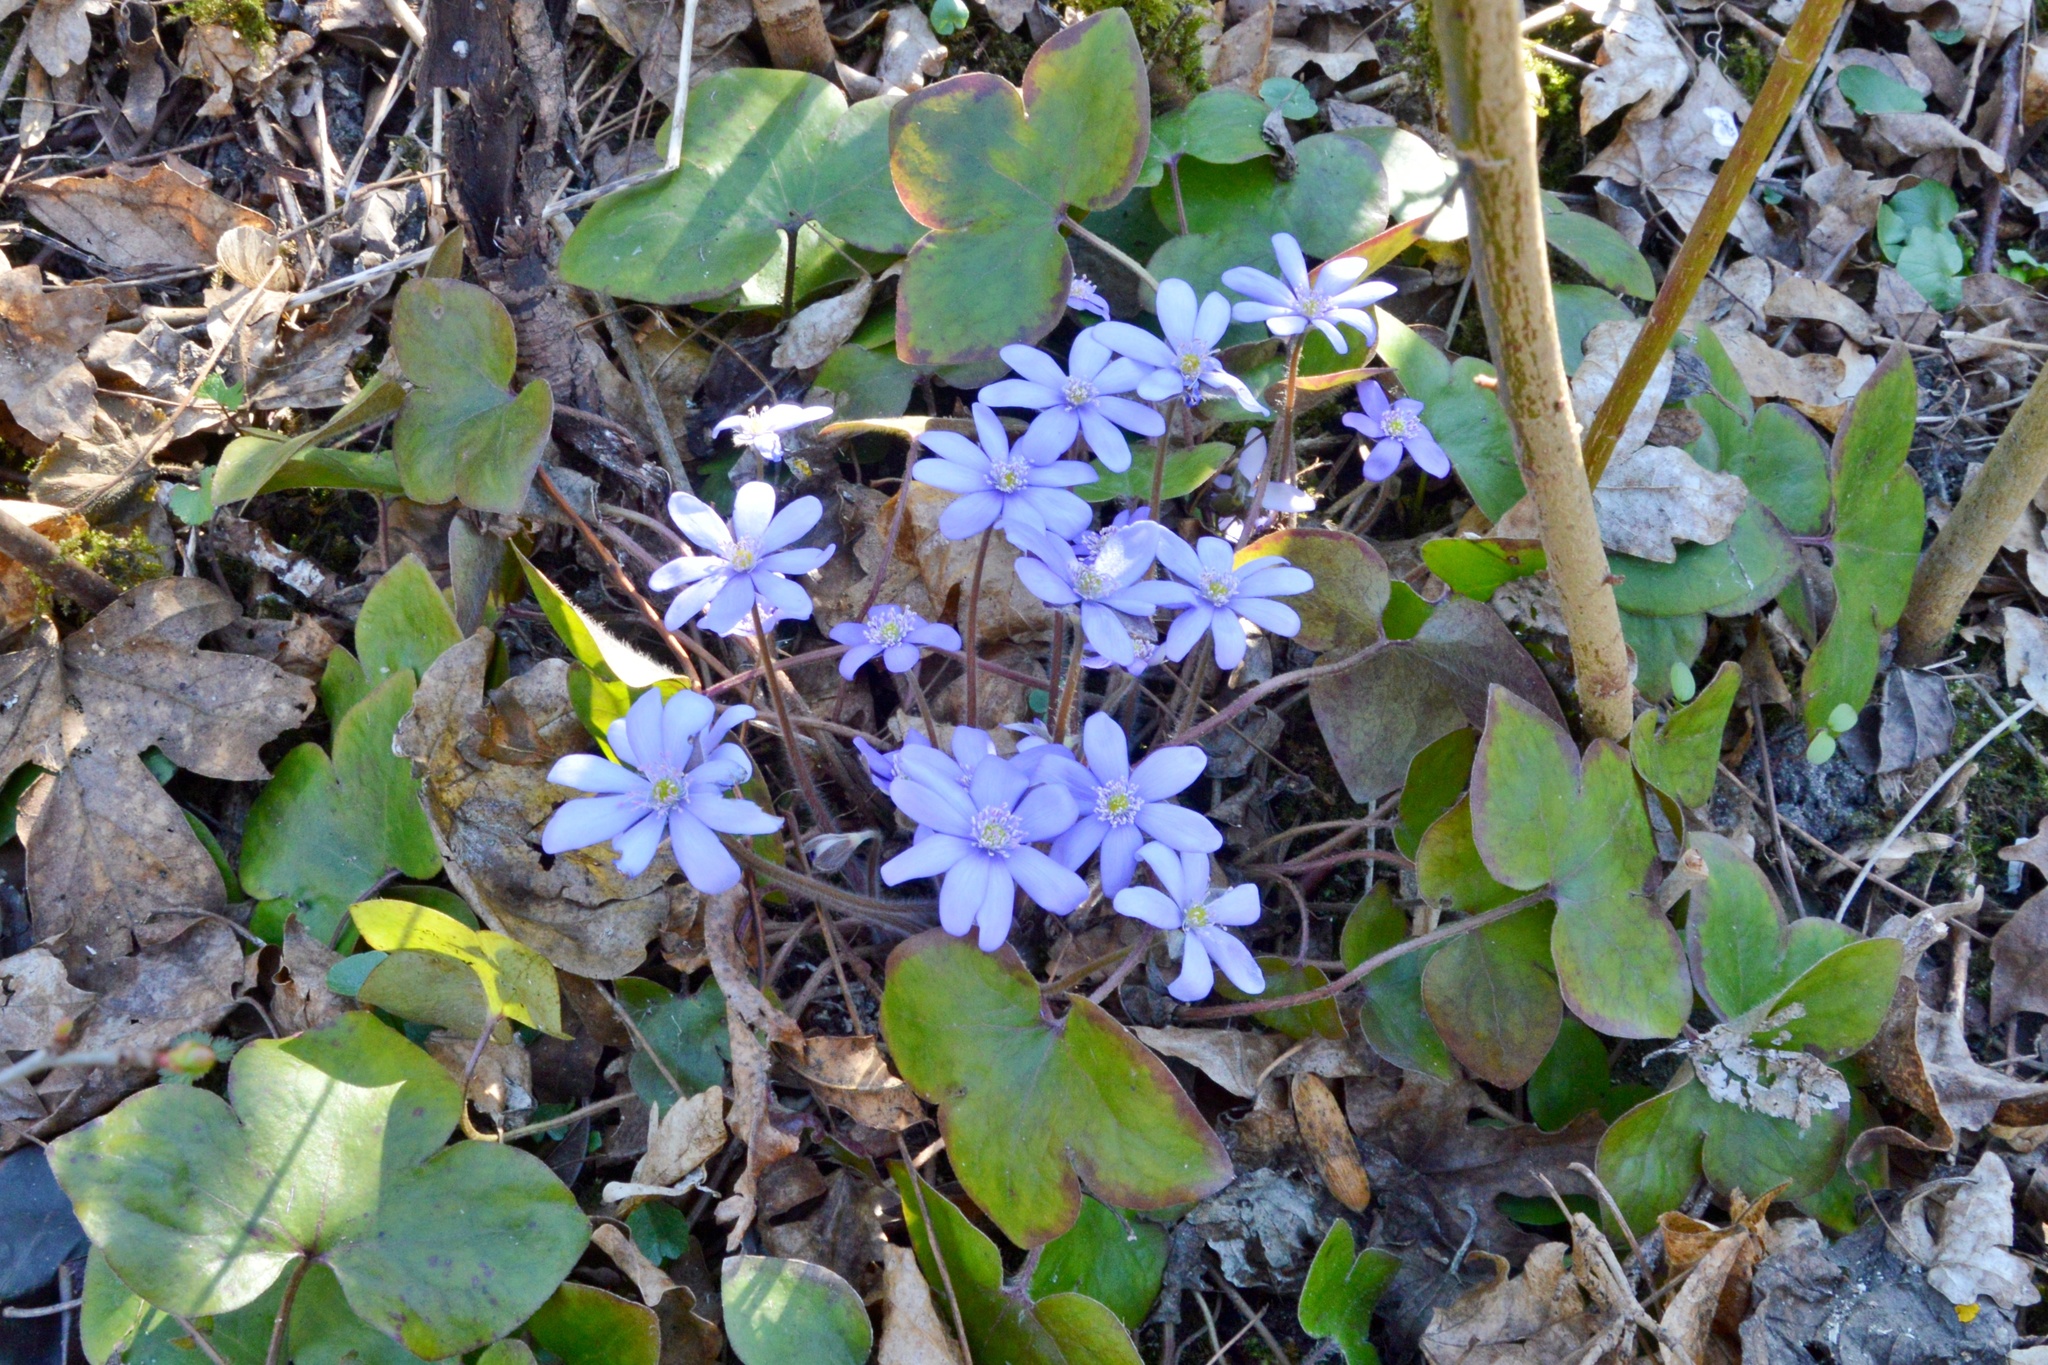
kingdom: Plantae
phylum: Tracheophyta
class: Magnoliopsida
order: Ranunculales
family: Ranunculaceae
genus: Hepatica
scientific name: Hepatica nobilis
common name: Liverleaf
